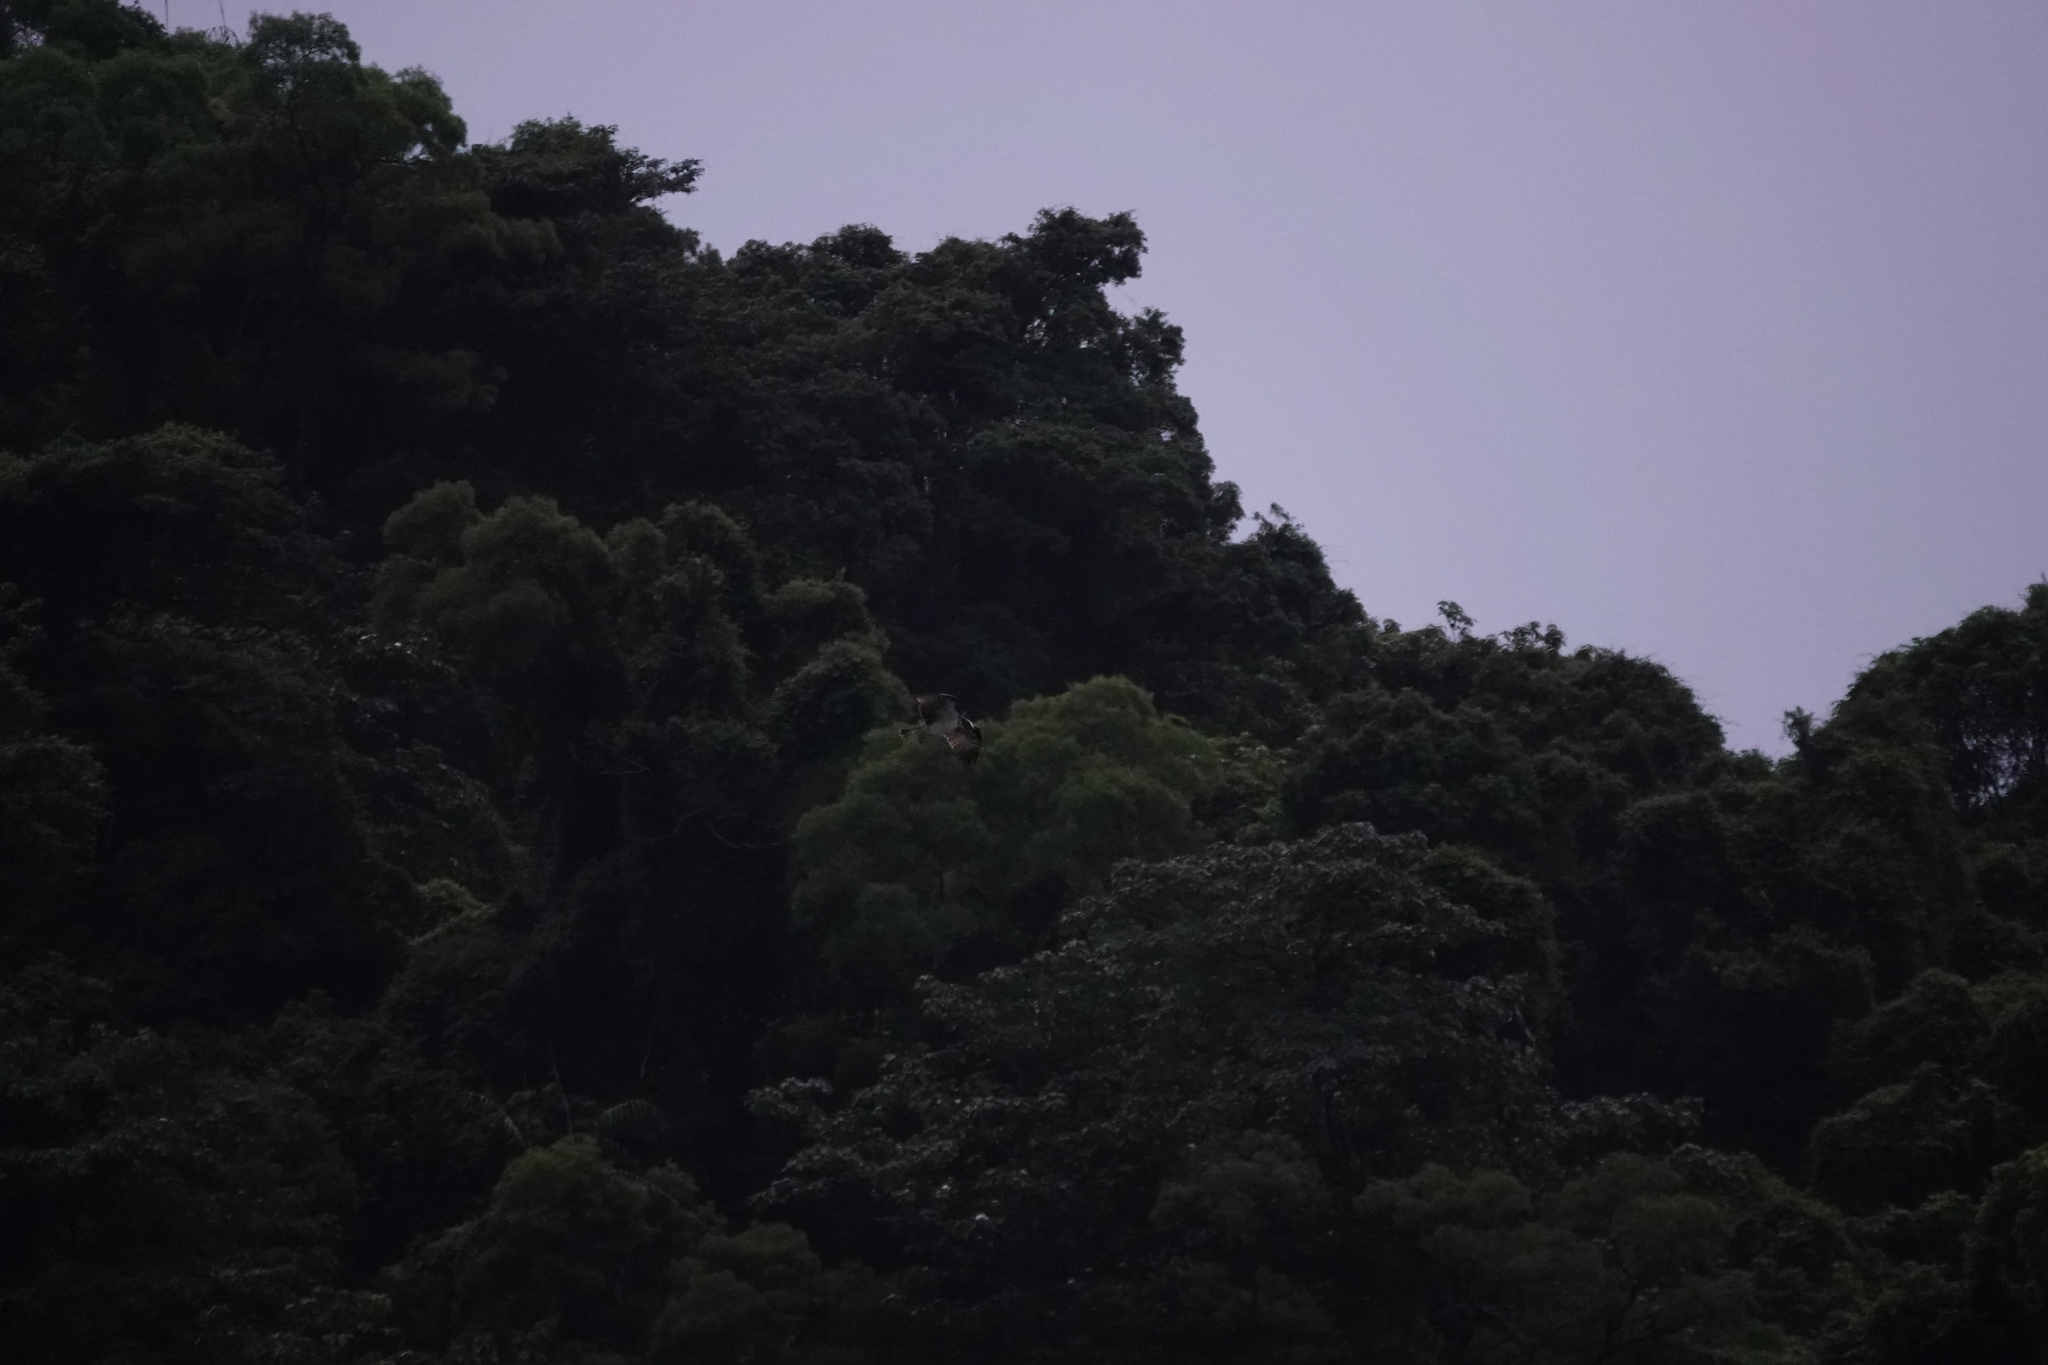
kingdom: Animalia
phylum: Chordata
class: Aves
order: Accipitriformes
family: Pandionidae
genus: Pandion
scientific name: Pandion haliaetus
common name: Osprey
